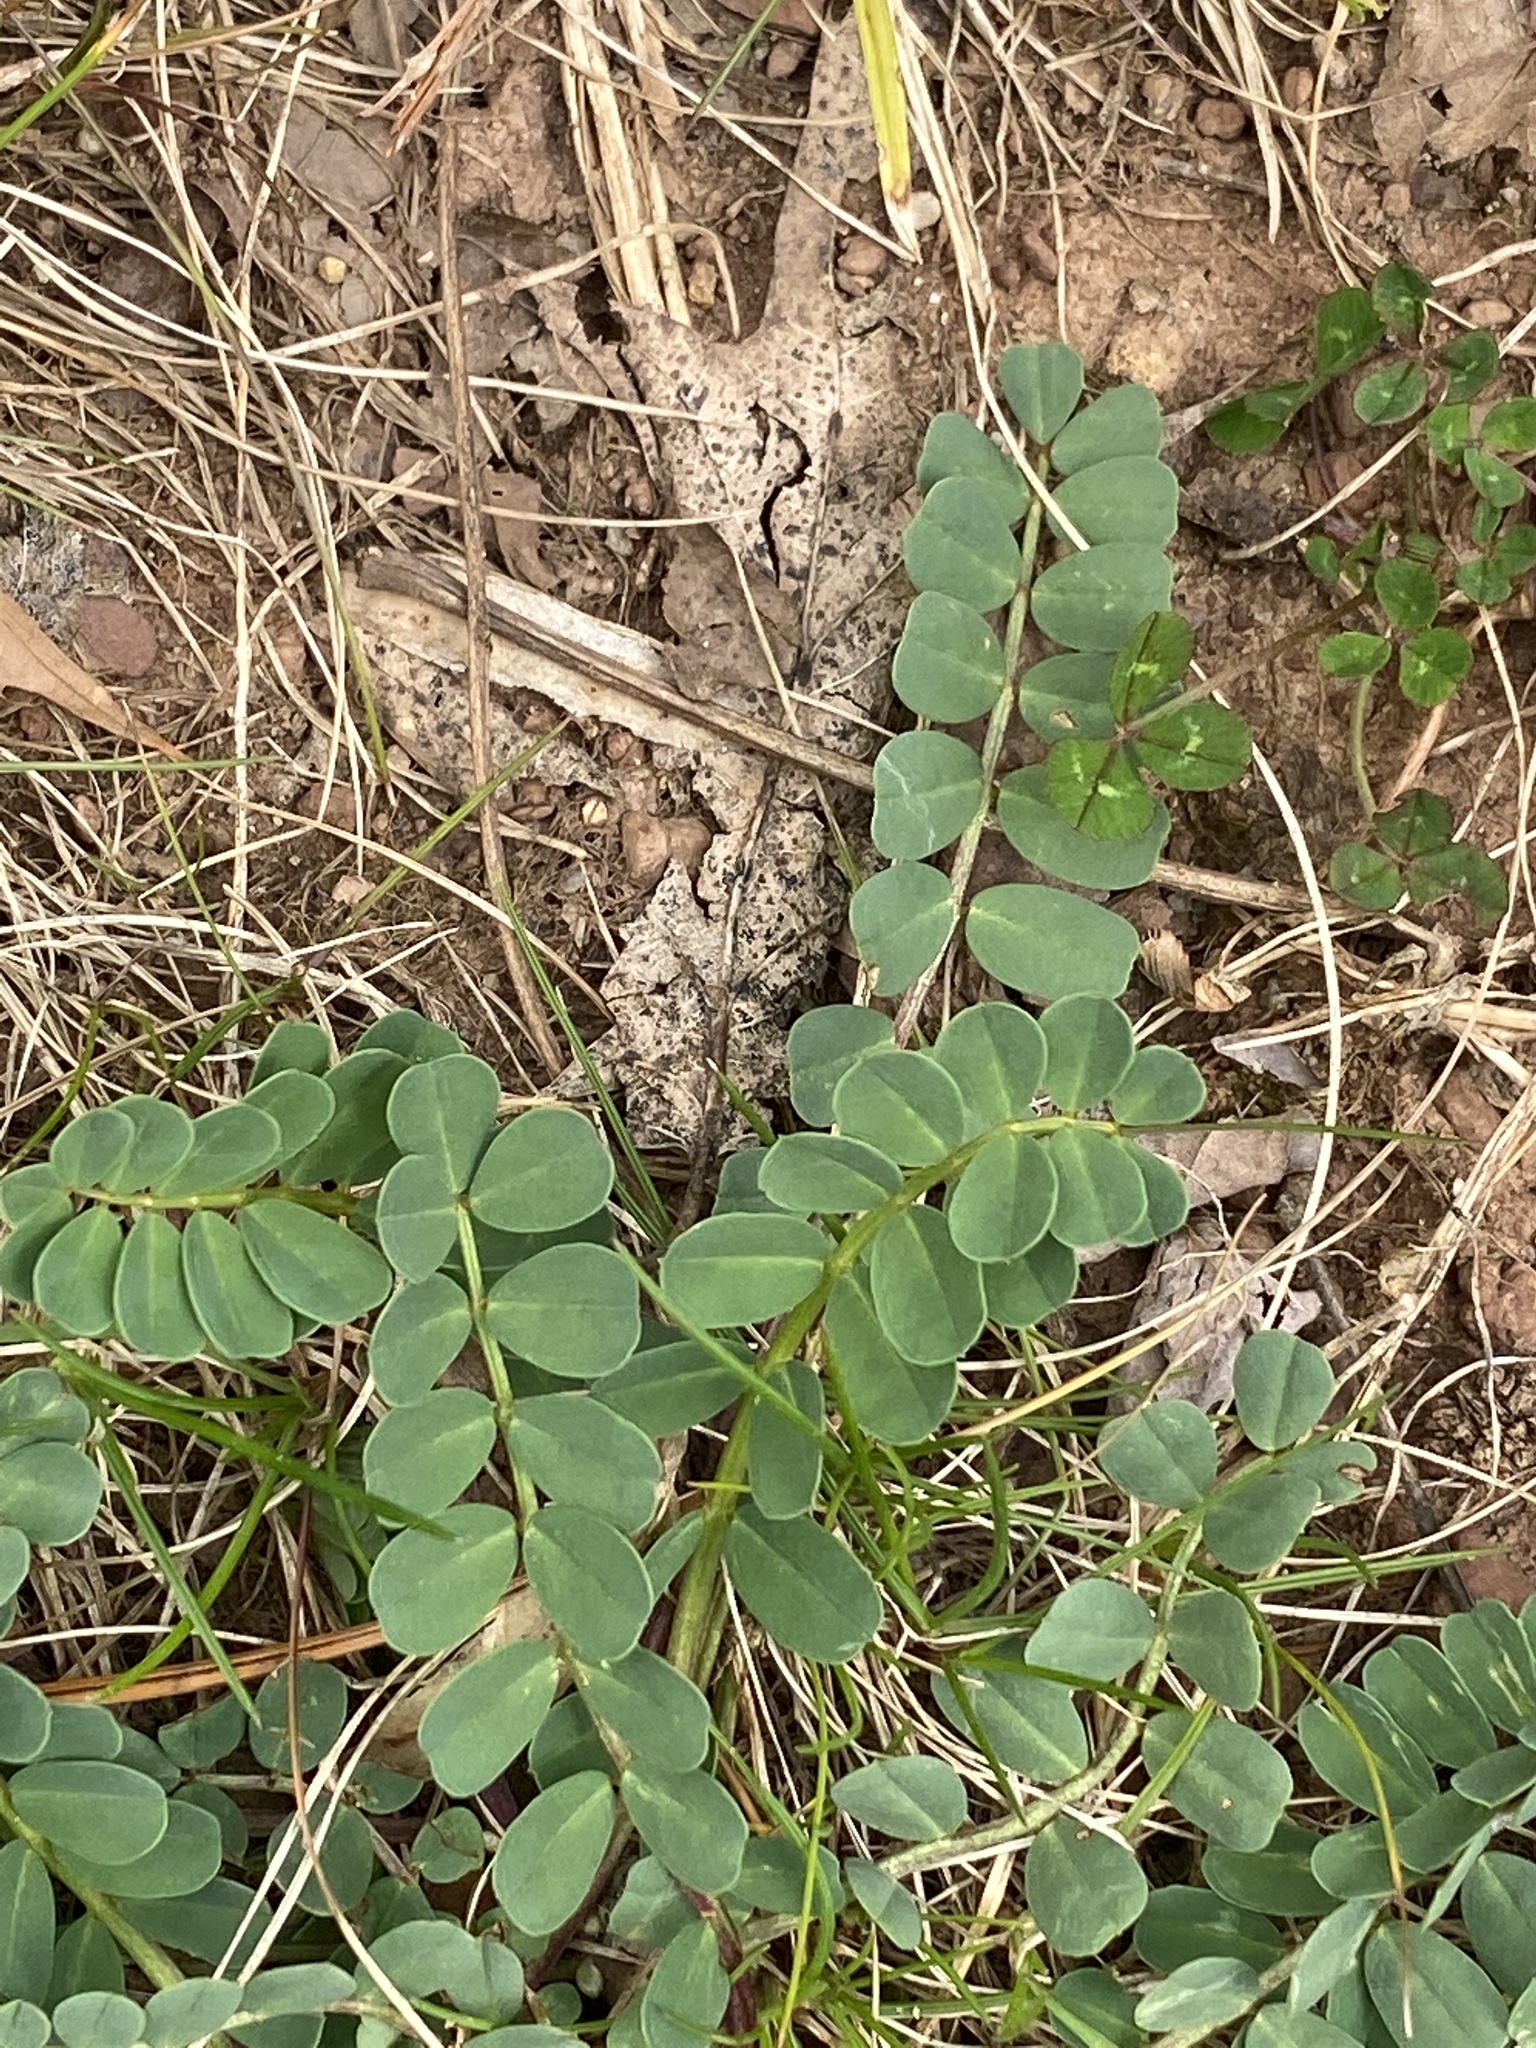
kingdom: Plantae
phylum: Tracheophyta
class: Magnoliopsida
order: Fabales
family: Fabaceae
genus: Coronilla
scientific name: Coronilla varia
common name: Crownvetch
